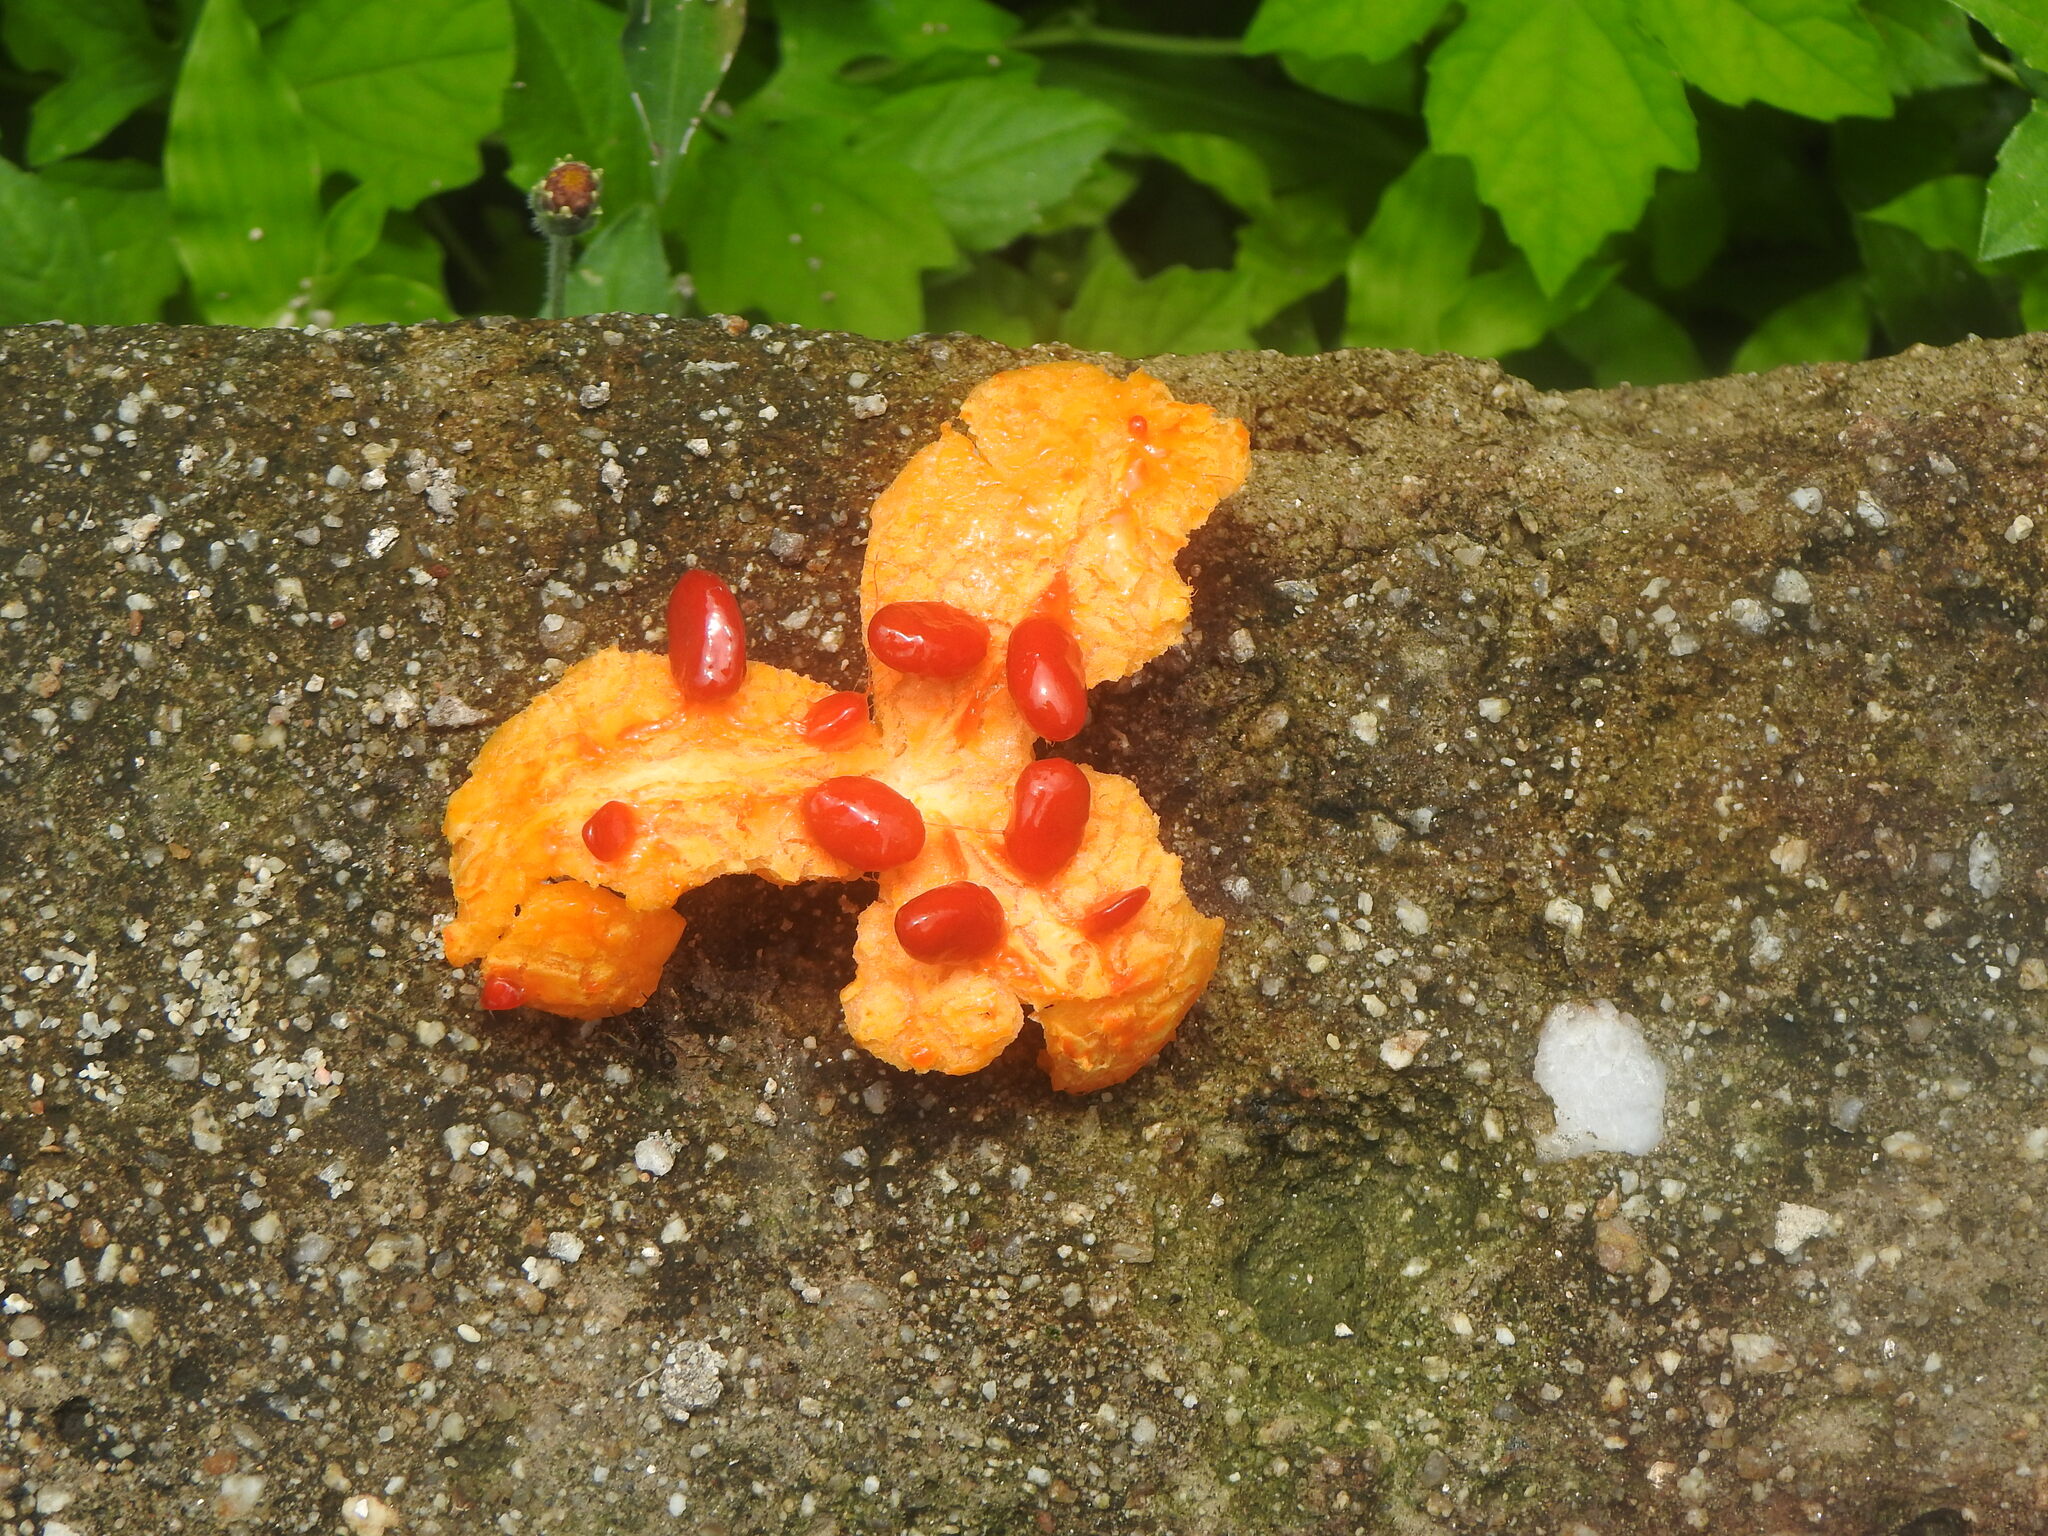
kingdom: Plantae
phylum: Tracheophyta
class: Magnoliopsida
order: Cucurbitales
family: Cucurbitaceae
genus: Momordica
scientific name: Momordica charantia
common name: Balsampear
